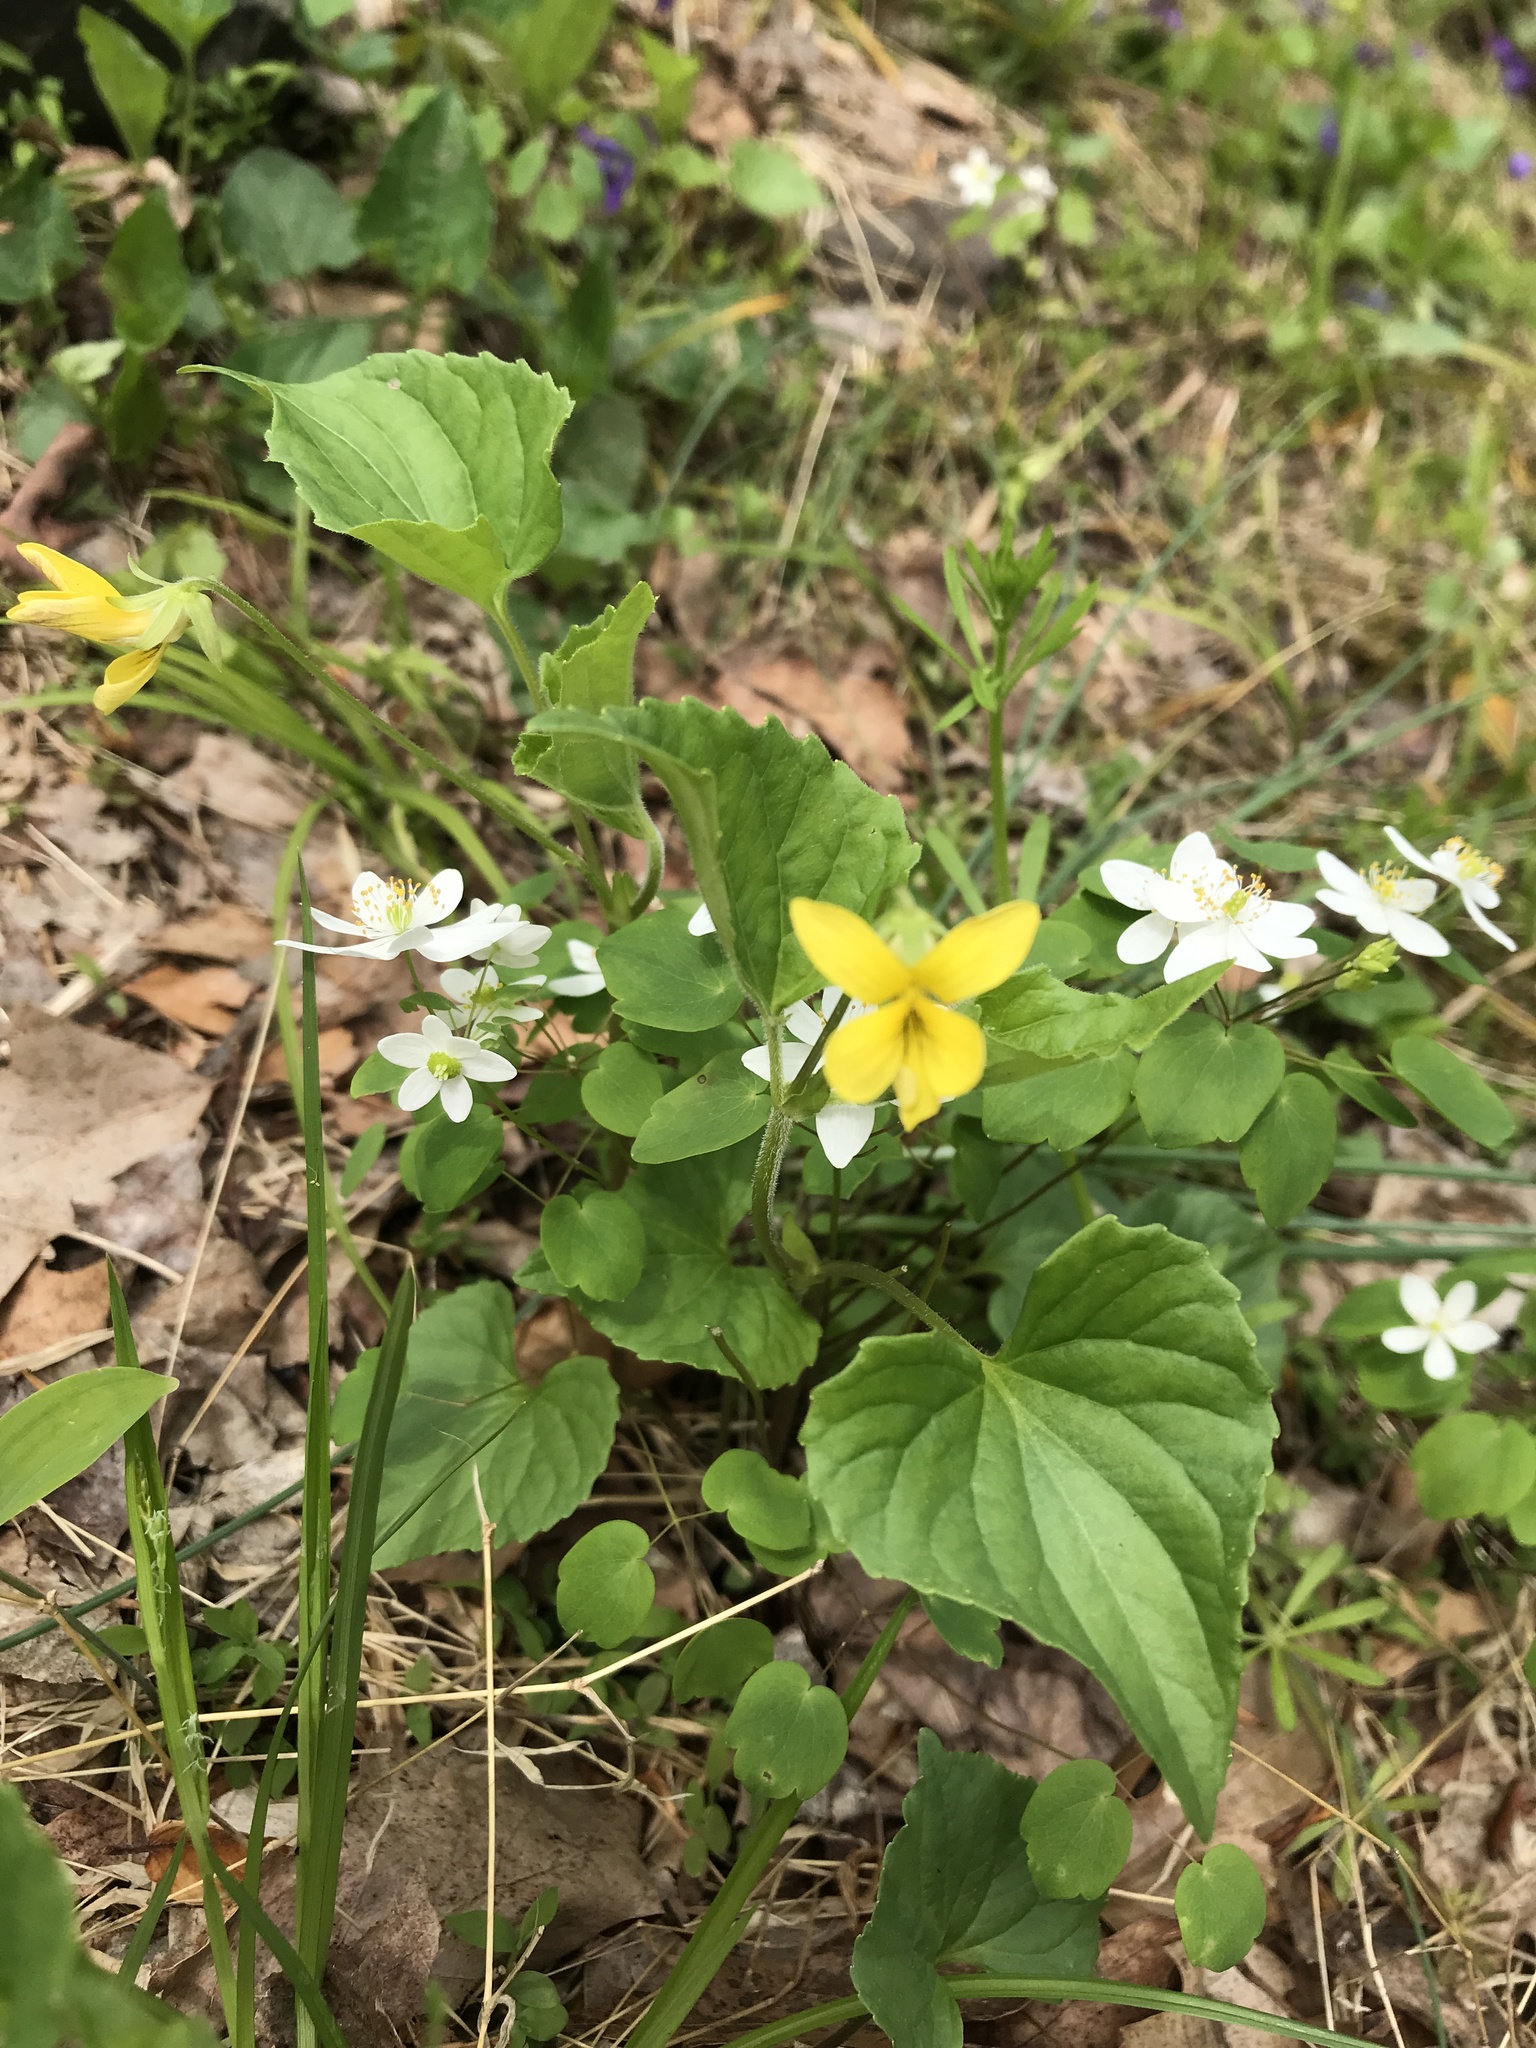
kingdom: Plantae
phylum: Tracheophyta
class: Magnoliopsida
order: Malpighiales
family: Violaceae
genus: Viola
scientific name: Viola eriocarpa
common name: Smooth yellow violet
